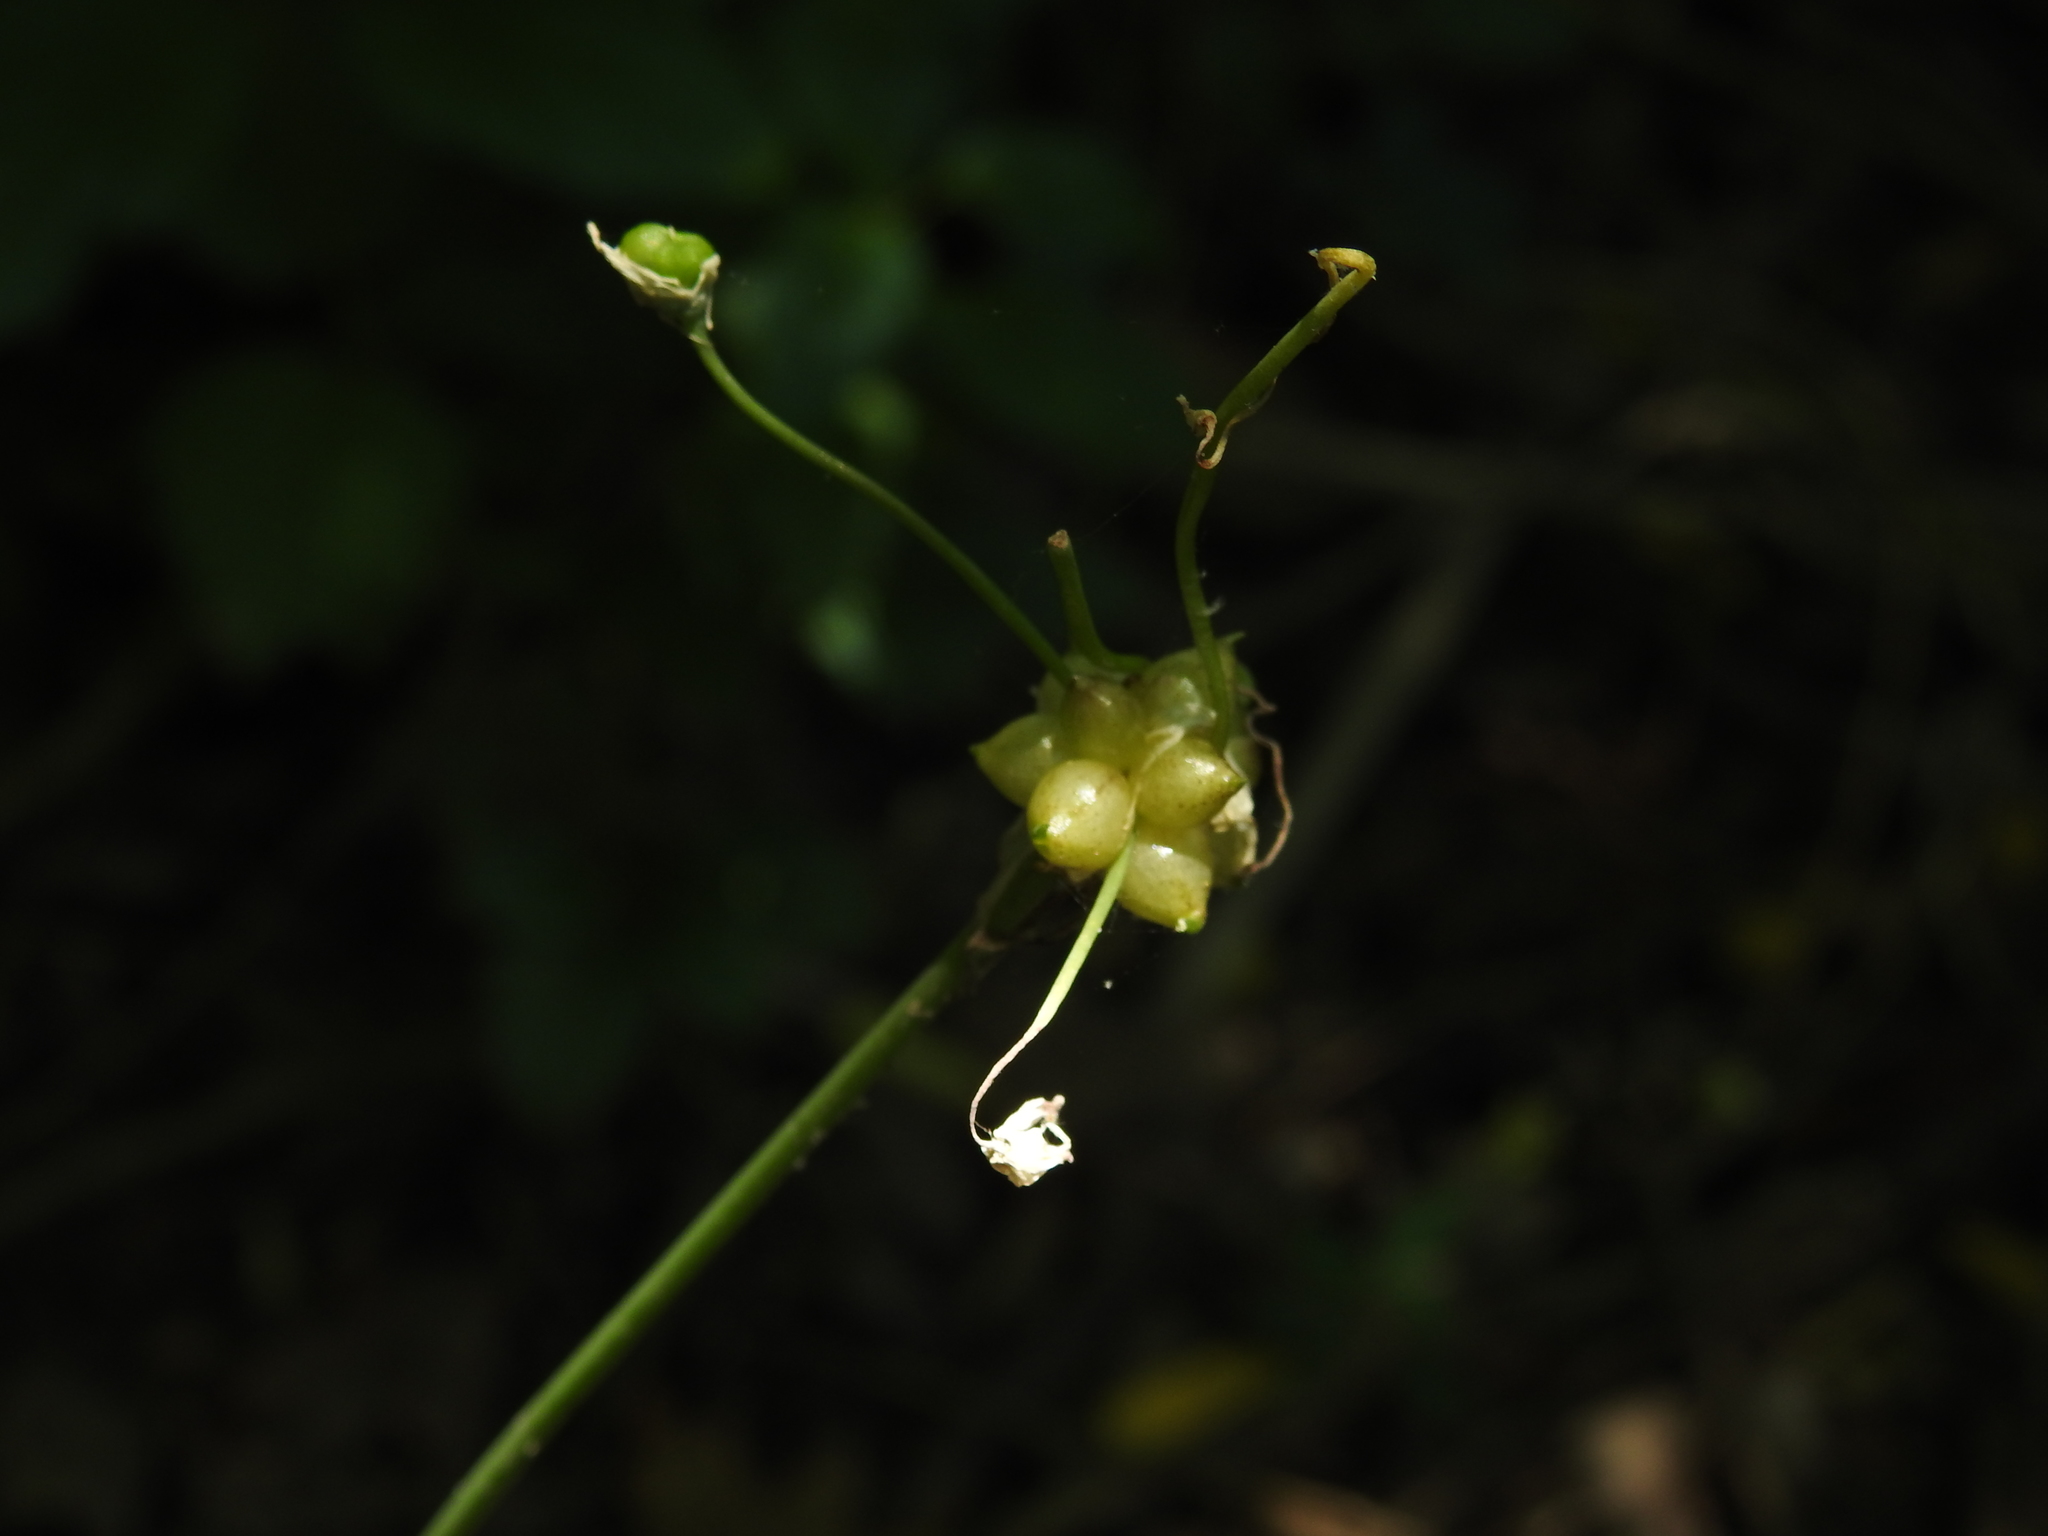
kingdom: Plantae
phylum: Tracheophyta
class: Liliopsida
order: Asparagales
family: Amaryllidaceae
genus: Allium
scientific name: Allium canadense
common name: Meadow garlic
